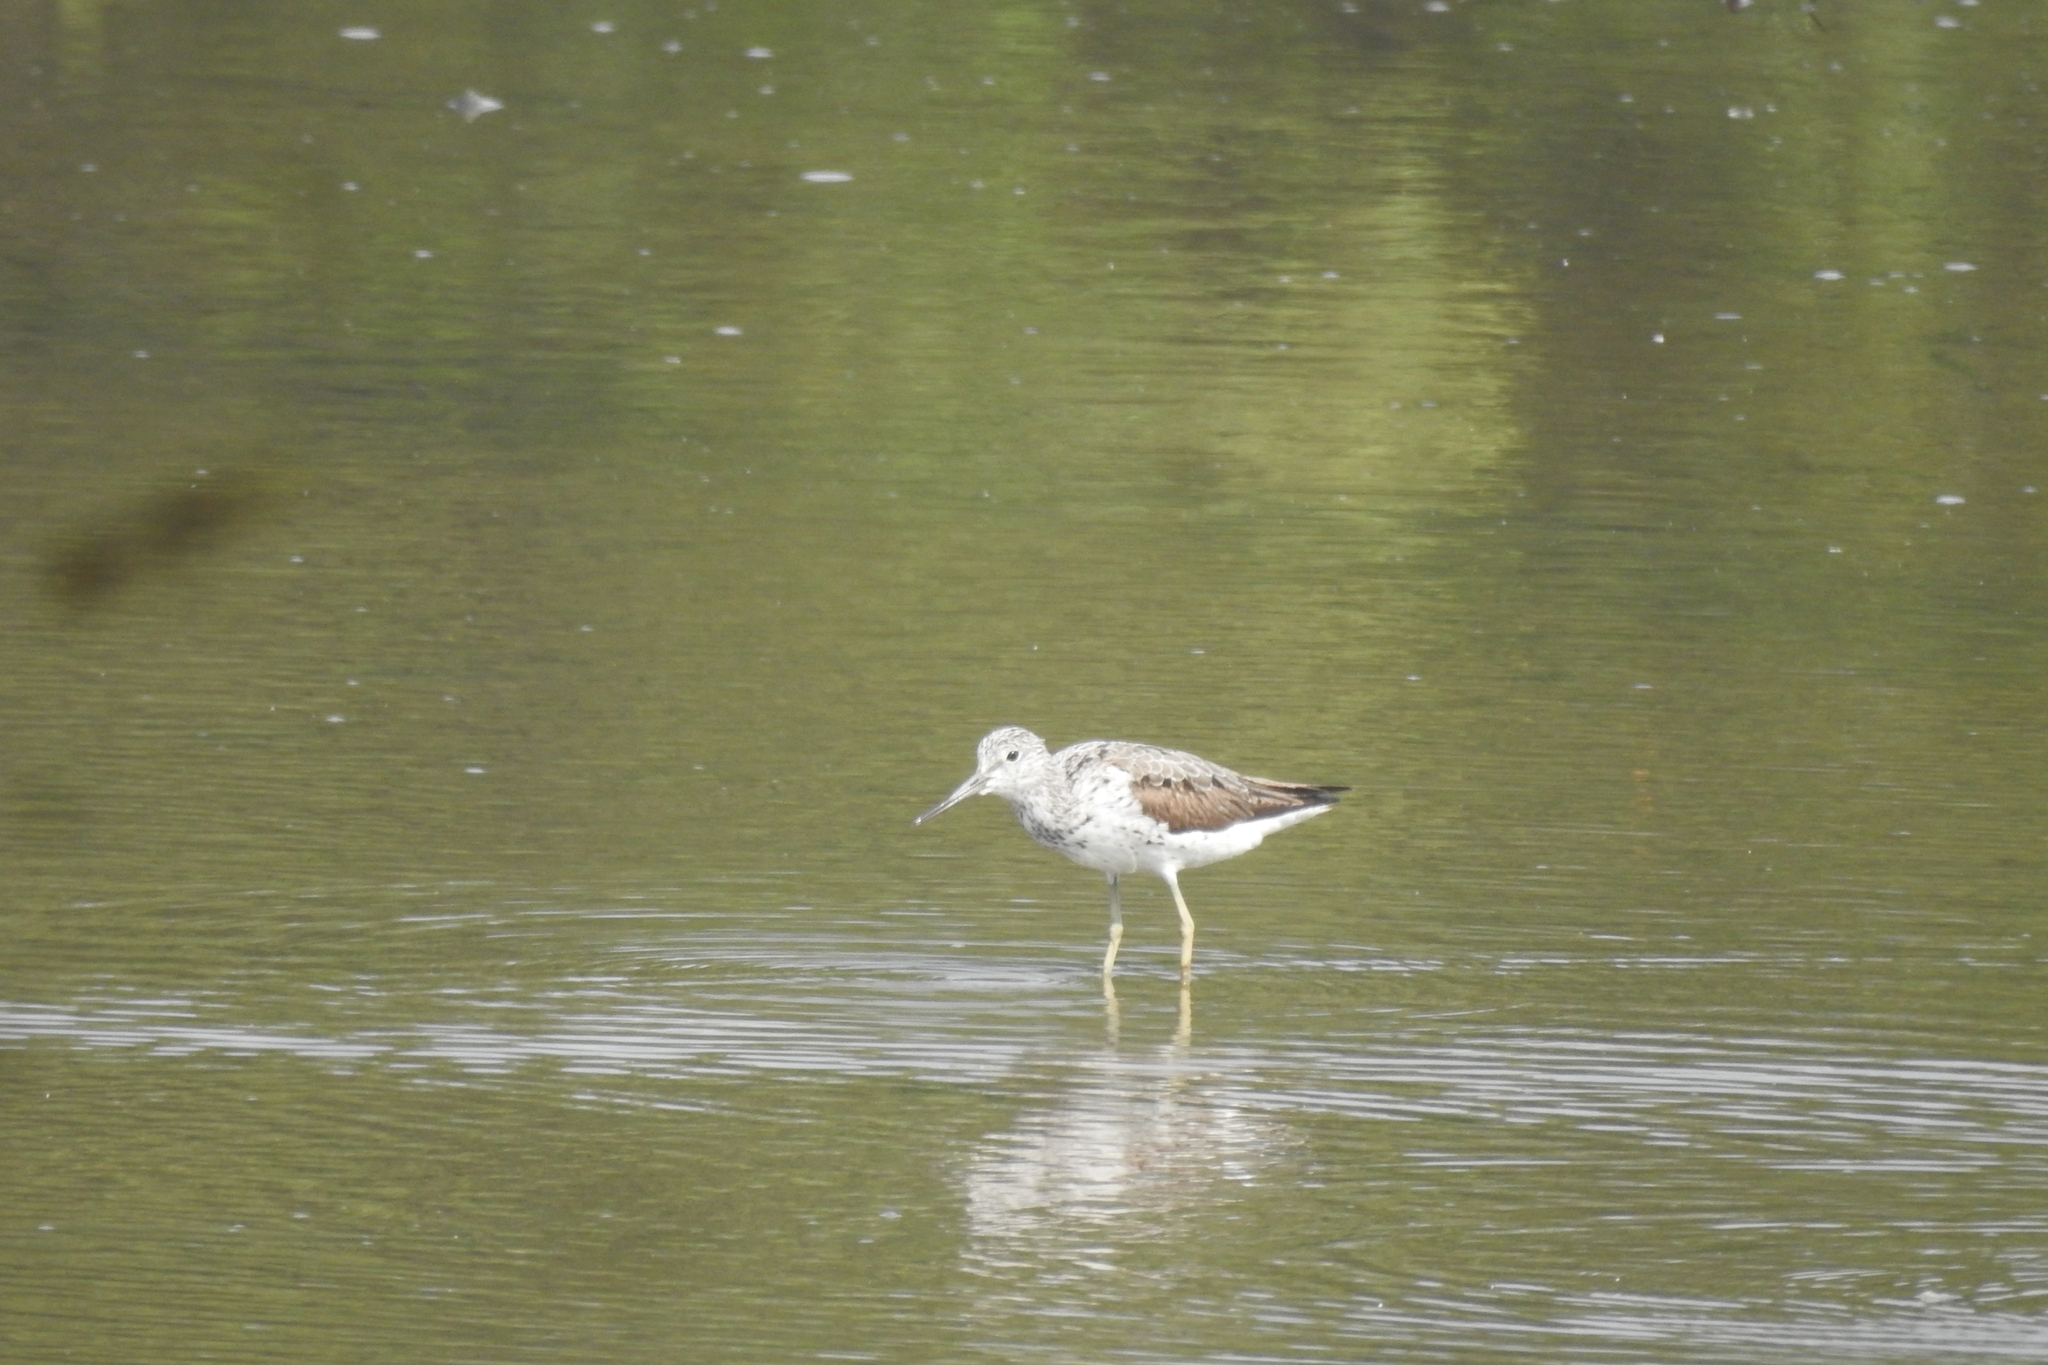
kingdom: Animalia
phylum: Chordata
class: Aves
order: Charadriiformes
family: Scolopacidae
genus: Tringa
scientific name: Tringa nebularia
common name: Common greenshank
